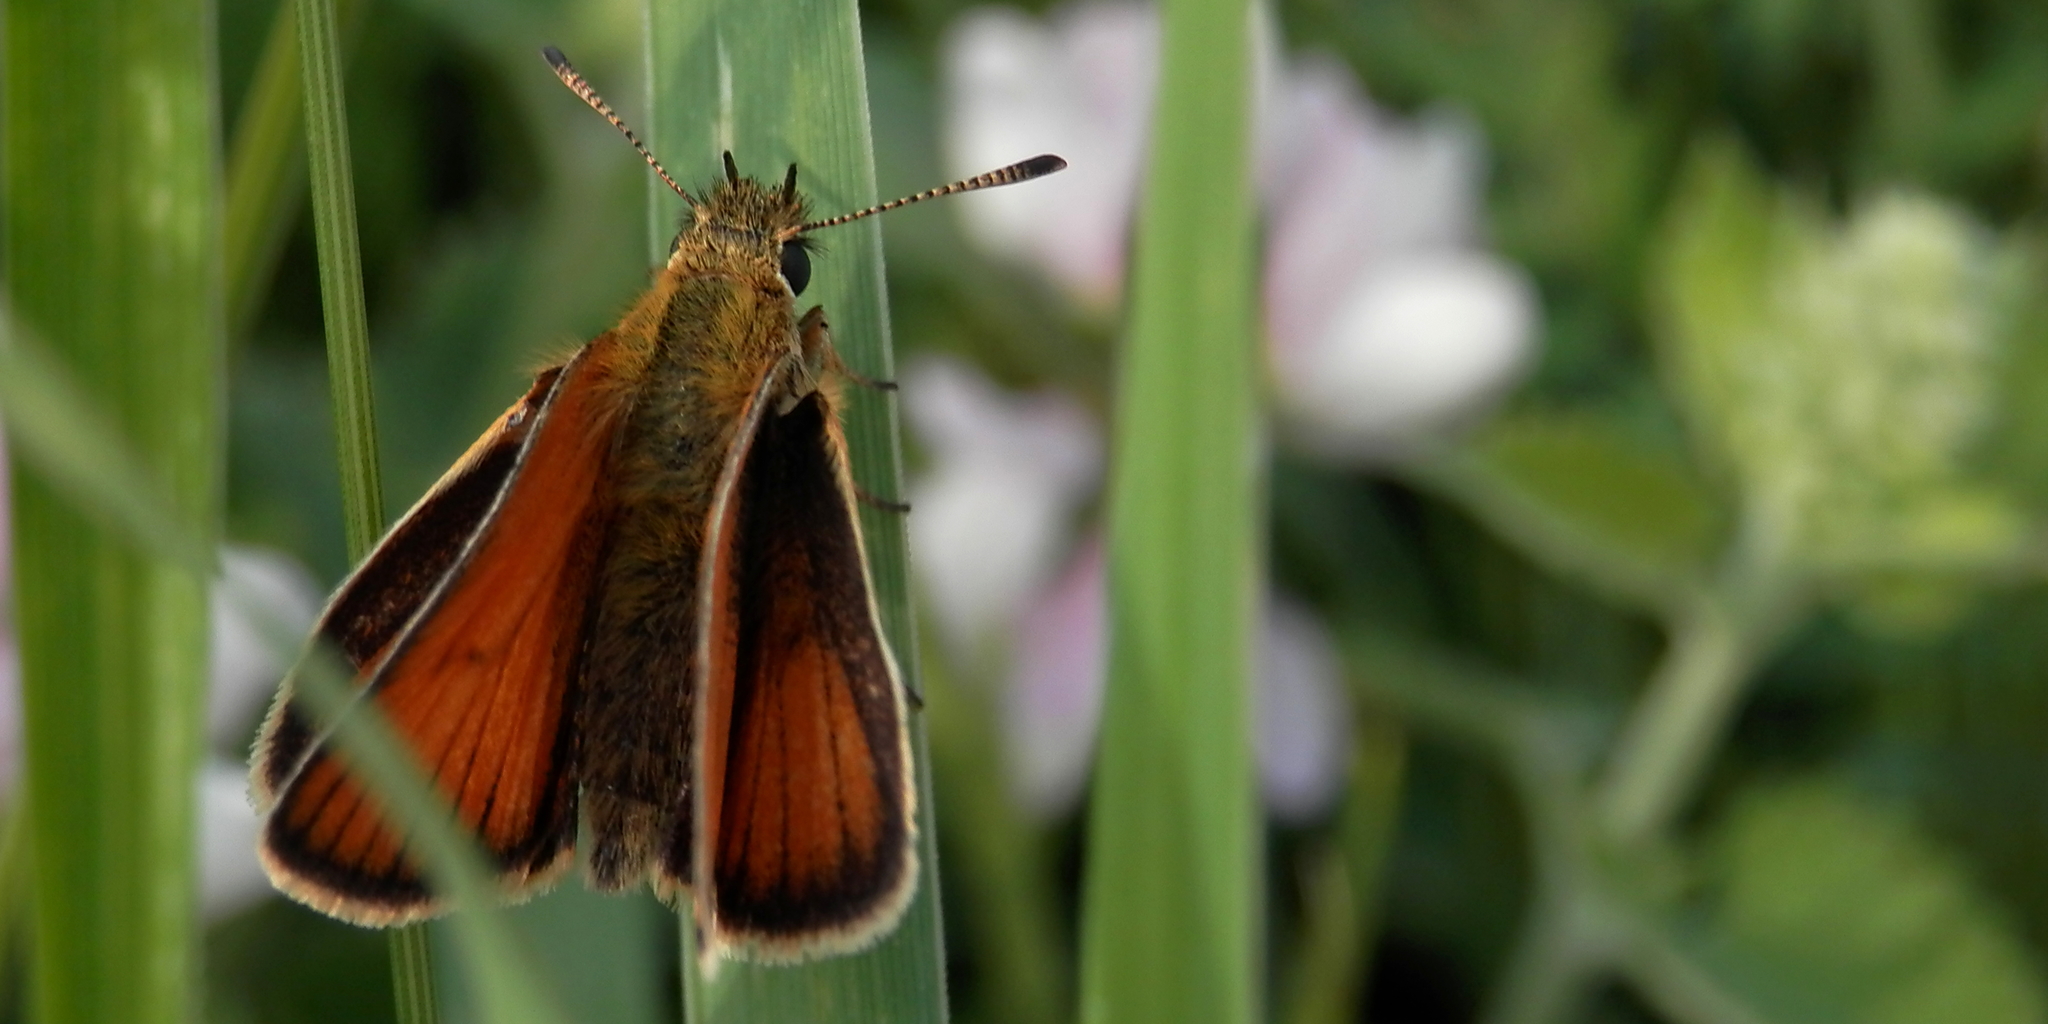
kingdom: Animalia
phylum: Arthropoda
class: Insecta
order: Lepidoptera
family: Hesperiidae
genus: Thymelicus
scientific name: Thymelicus lineola
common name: Essex skipper
